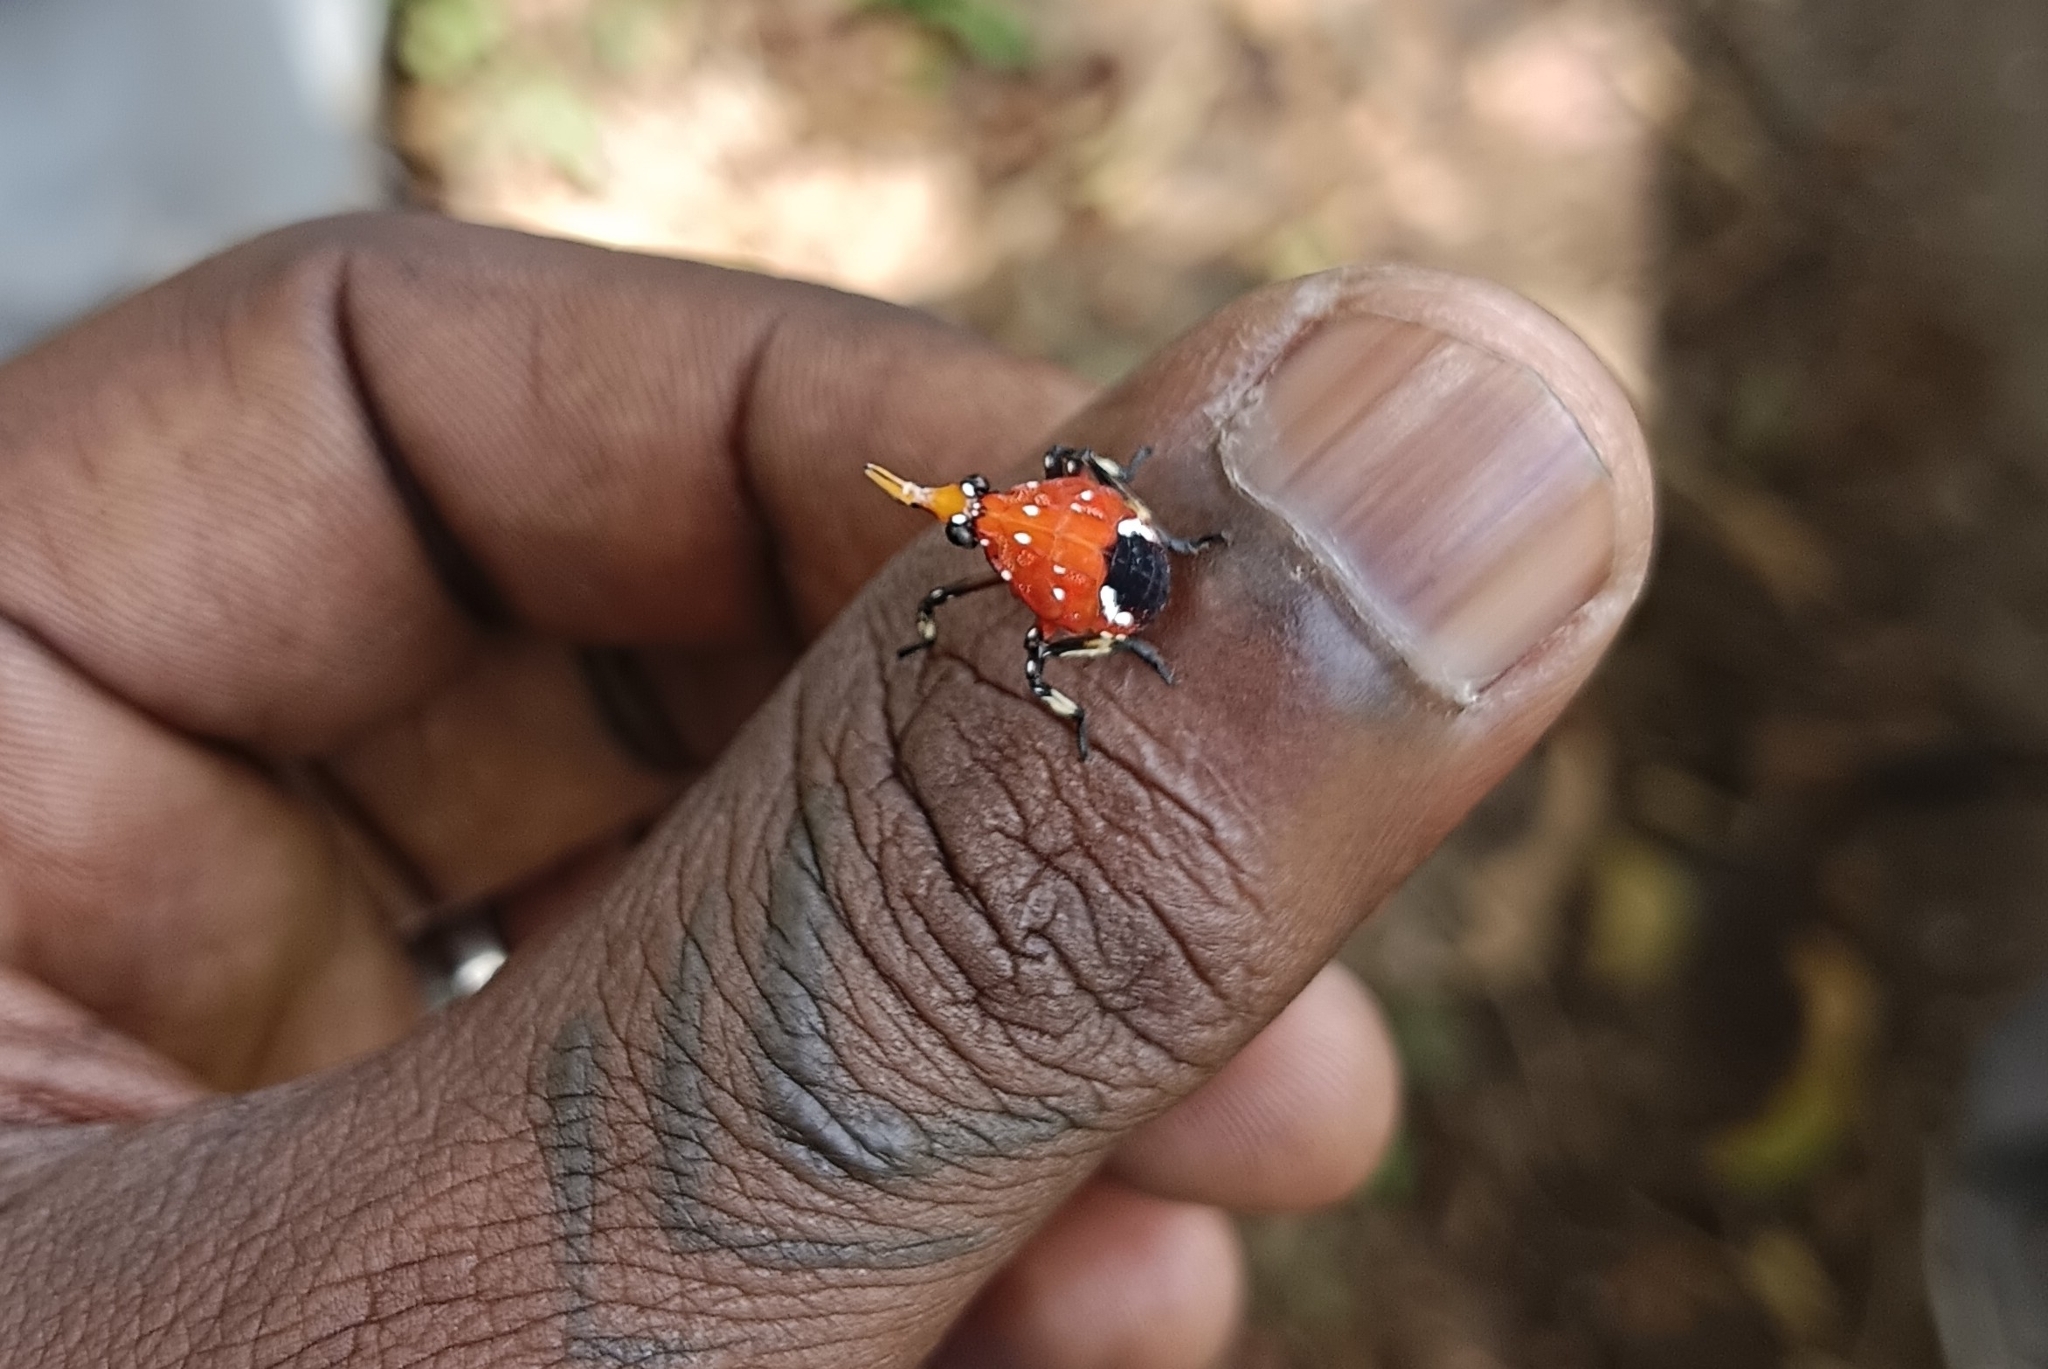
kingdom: Animalia
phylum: Arthropoda
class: Insecta
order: Hemiptera
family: Fulgoridae
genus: Kalidasa
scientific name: Kalidasa lanata
